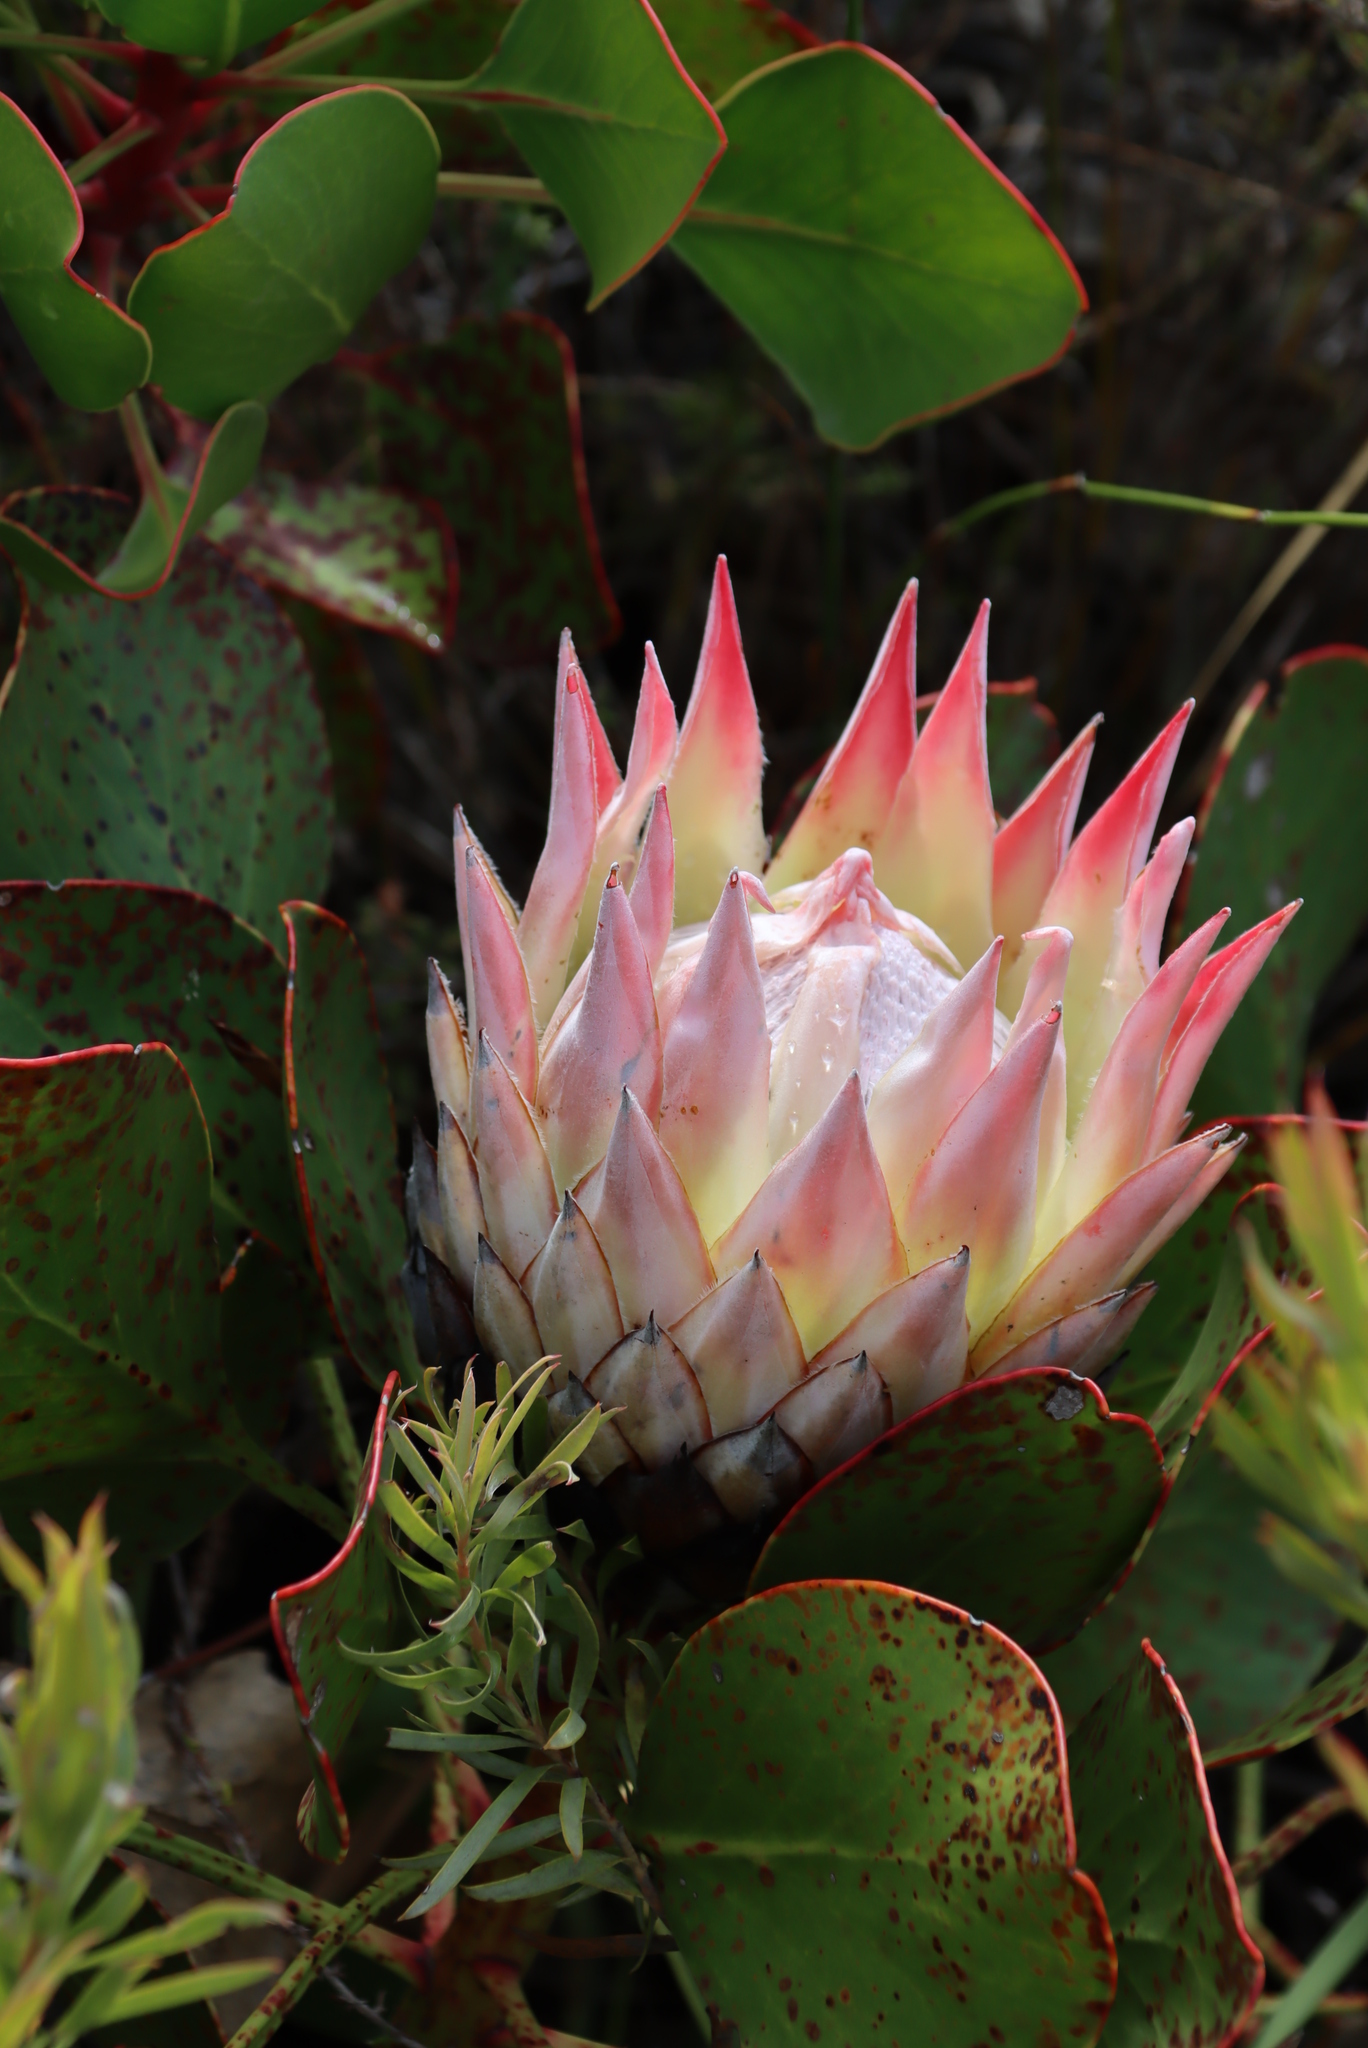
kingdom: Plantae
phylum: Tracheophyta
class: Magnoliopsida
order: Proteales
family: Proteaceae
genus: Protea
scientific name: Protea cynaroides
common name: King protea
